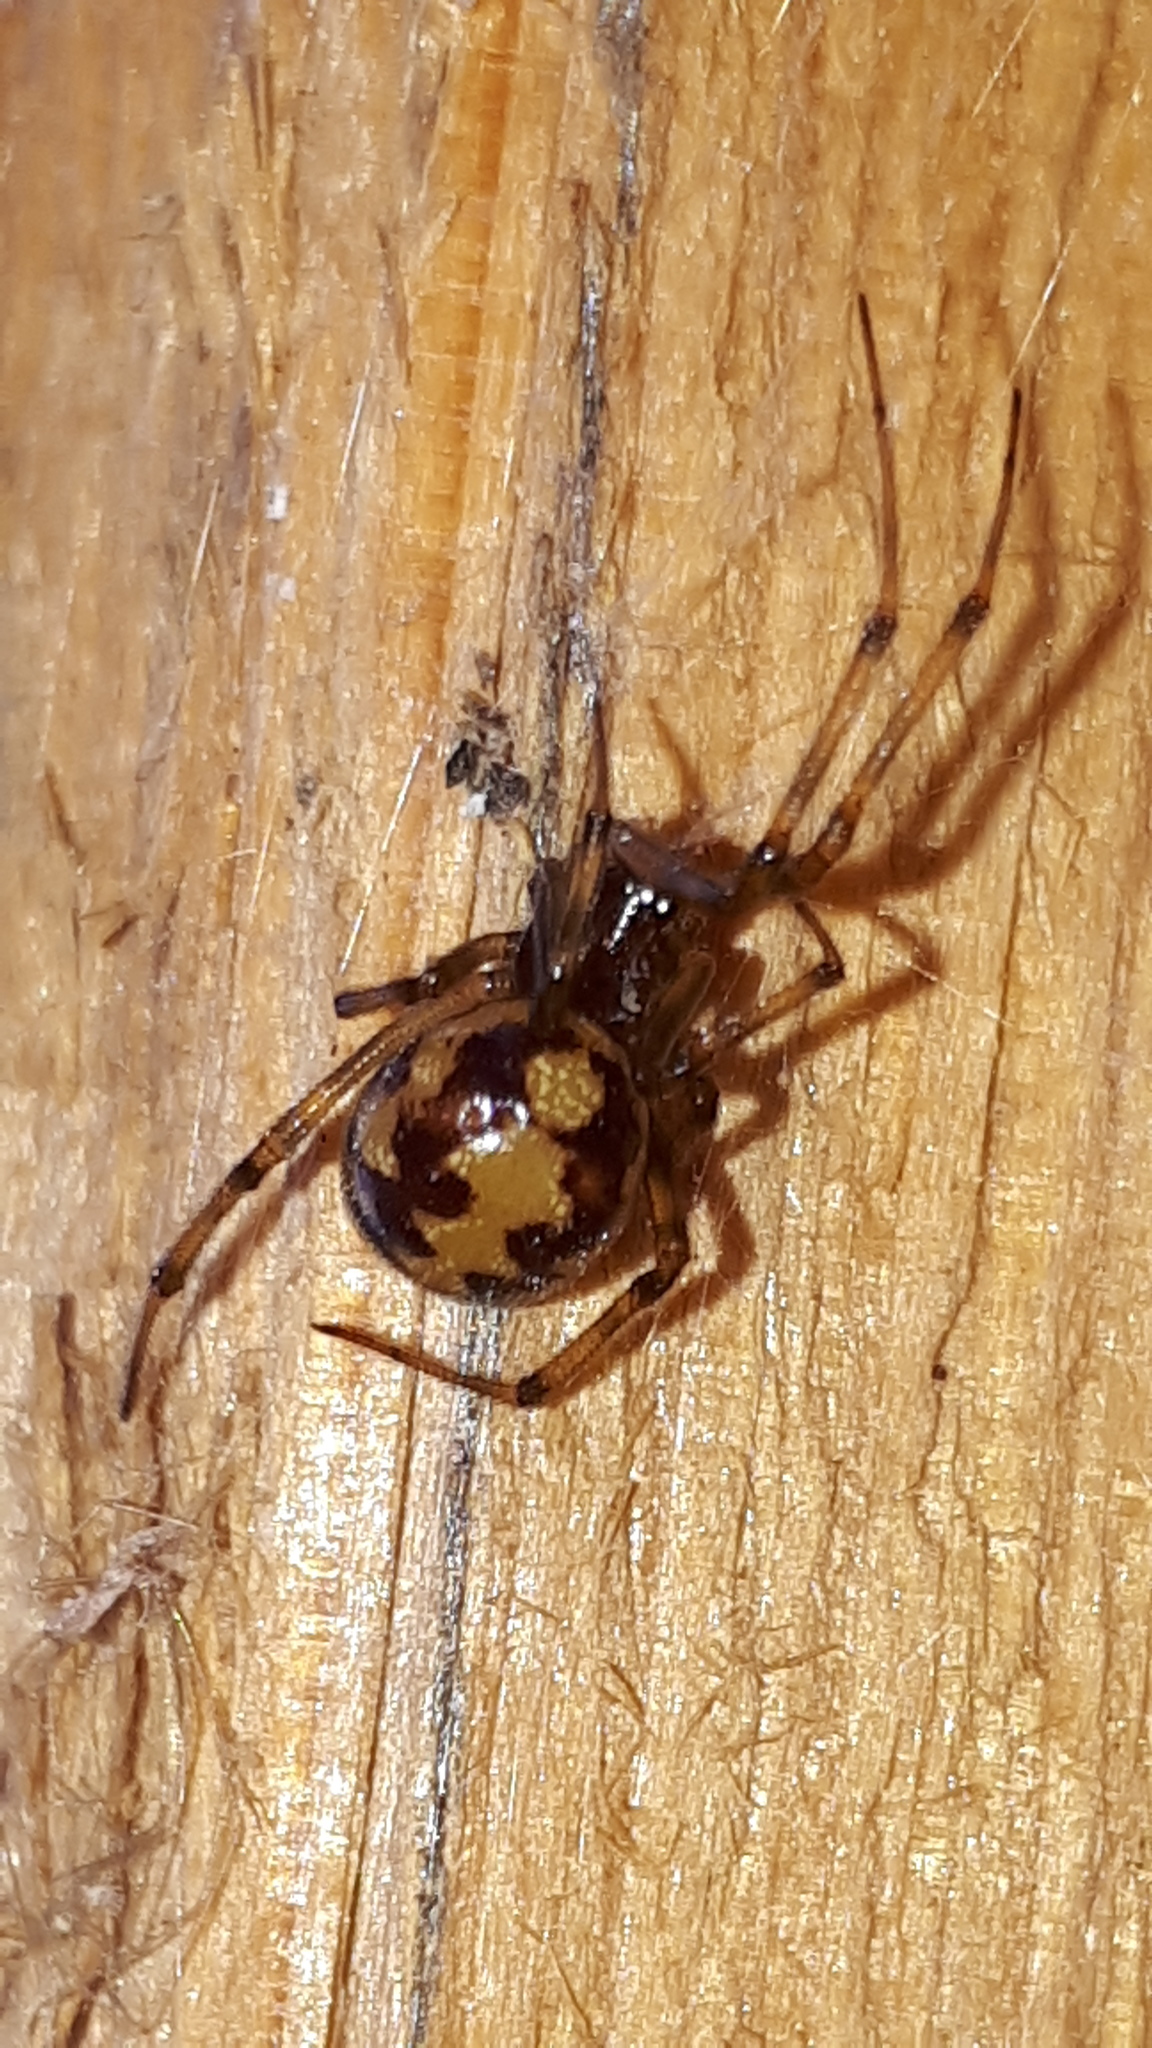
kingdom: Animalia
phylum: Arthropoda
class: Arachnida
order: Araneae
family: Theridiidae
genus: Steatoda
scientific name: Steatoda triangulosa
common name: Triangulate bud spider
